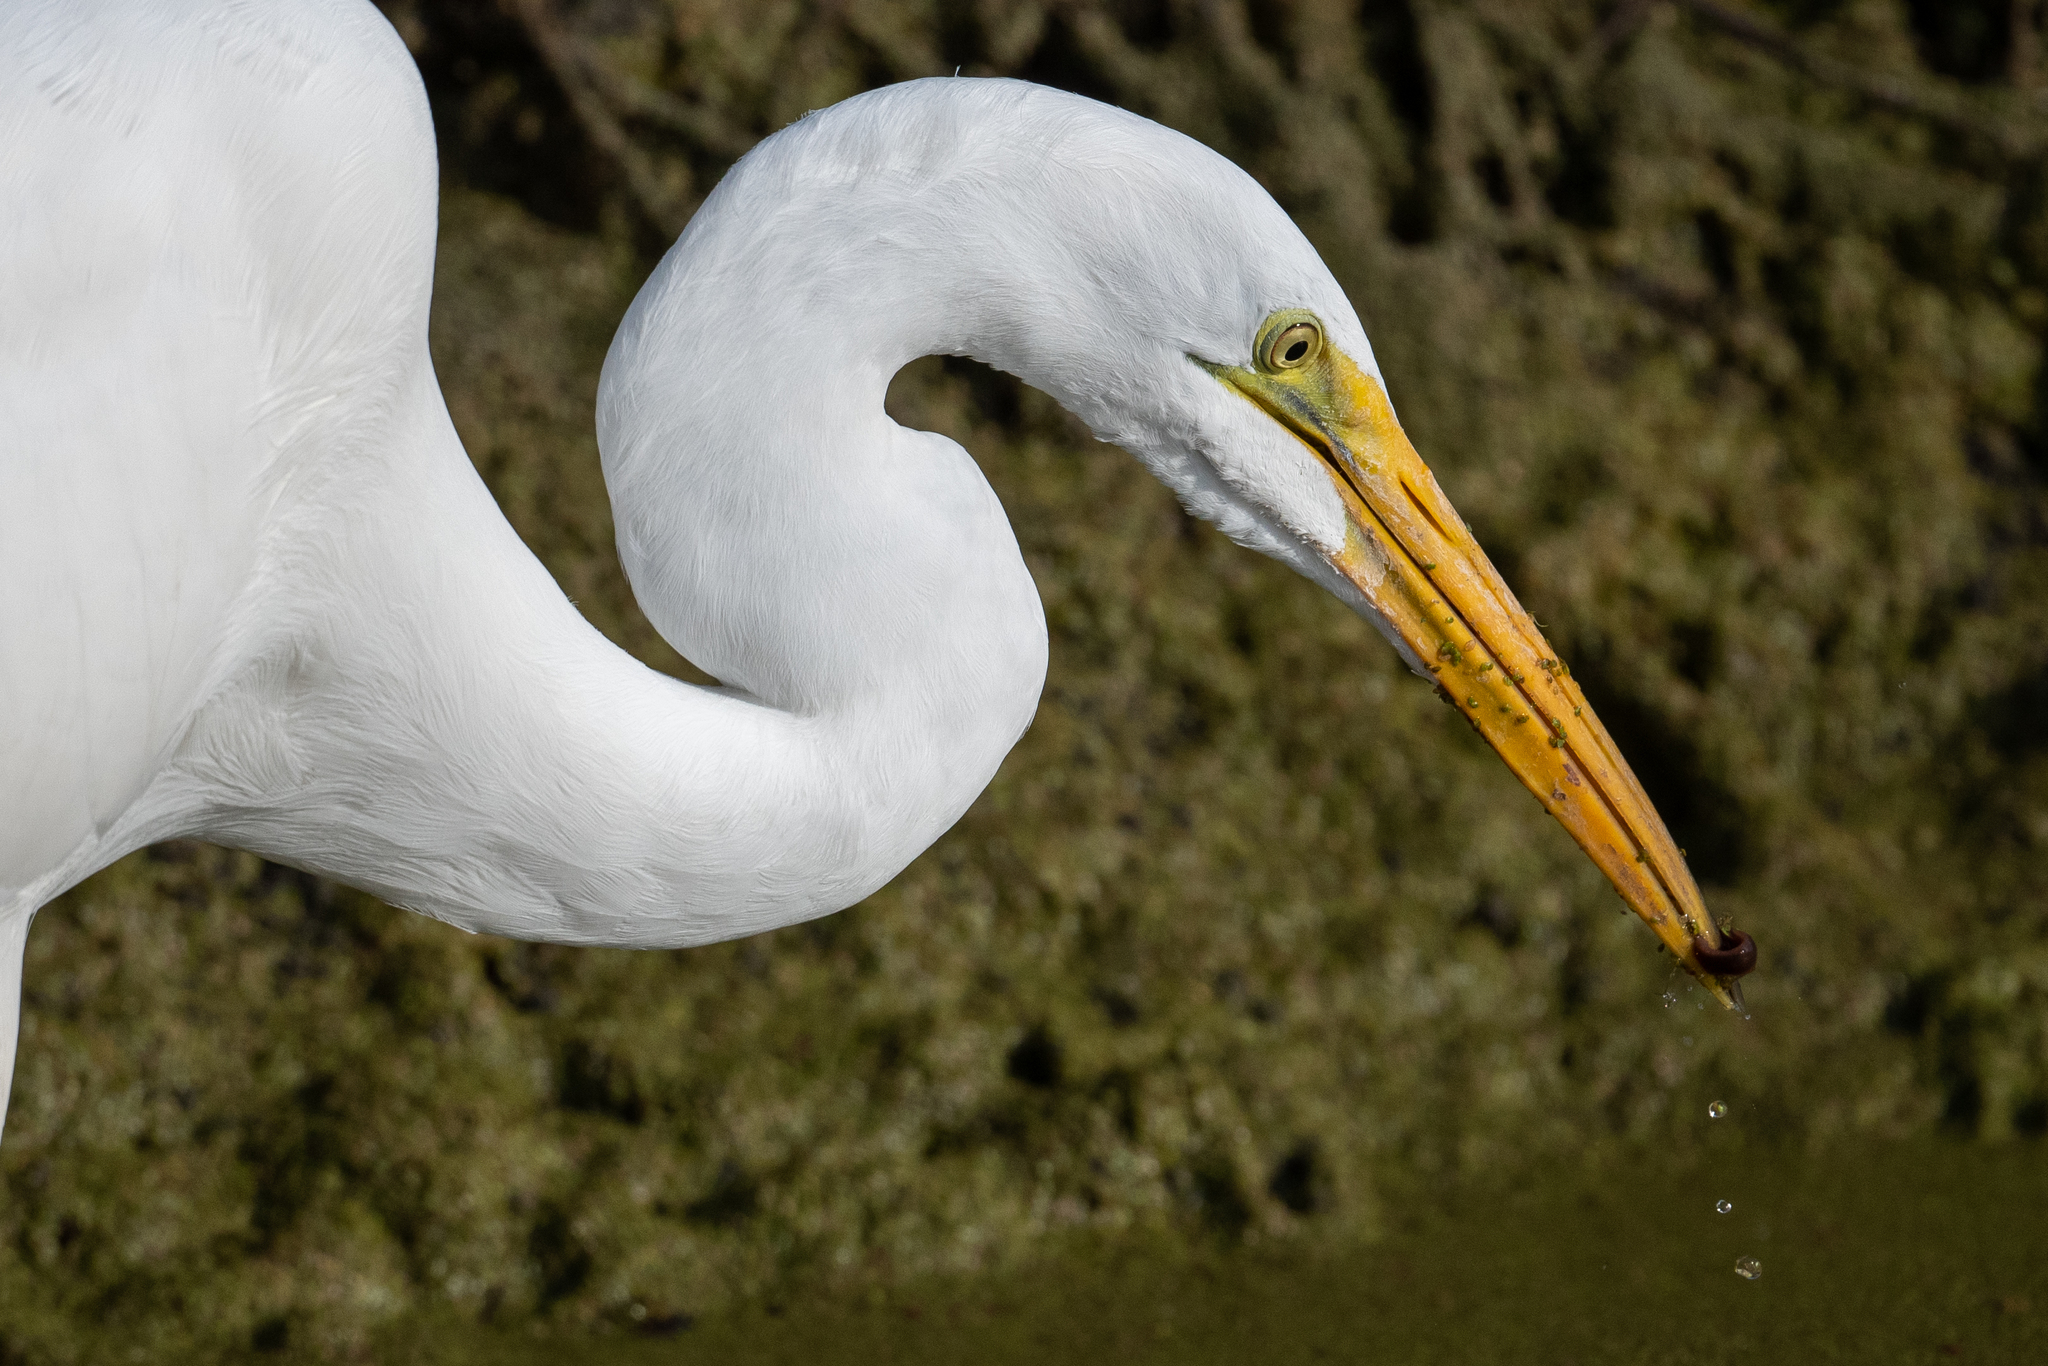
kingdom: Animalia
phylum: Chordata
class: Aves
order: Pelecaniformes
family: Ardeidae
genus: Ardea
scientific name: Ardea alba
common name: Great egret
